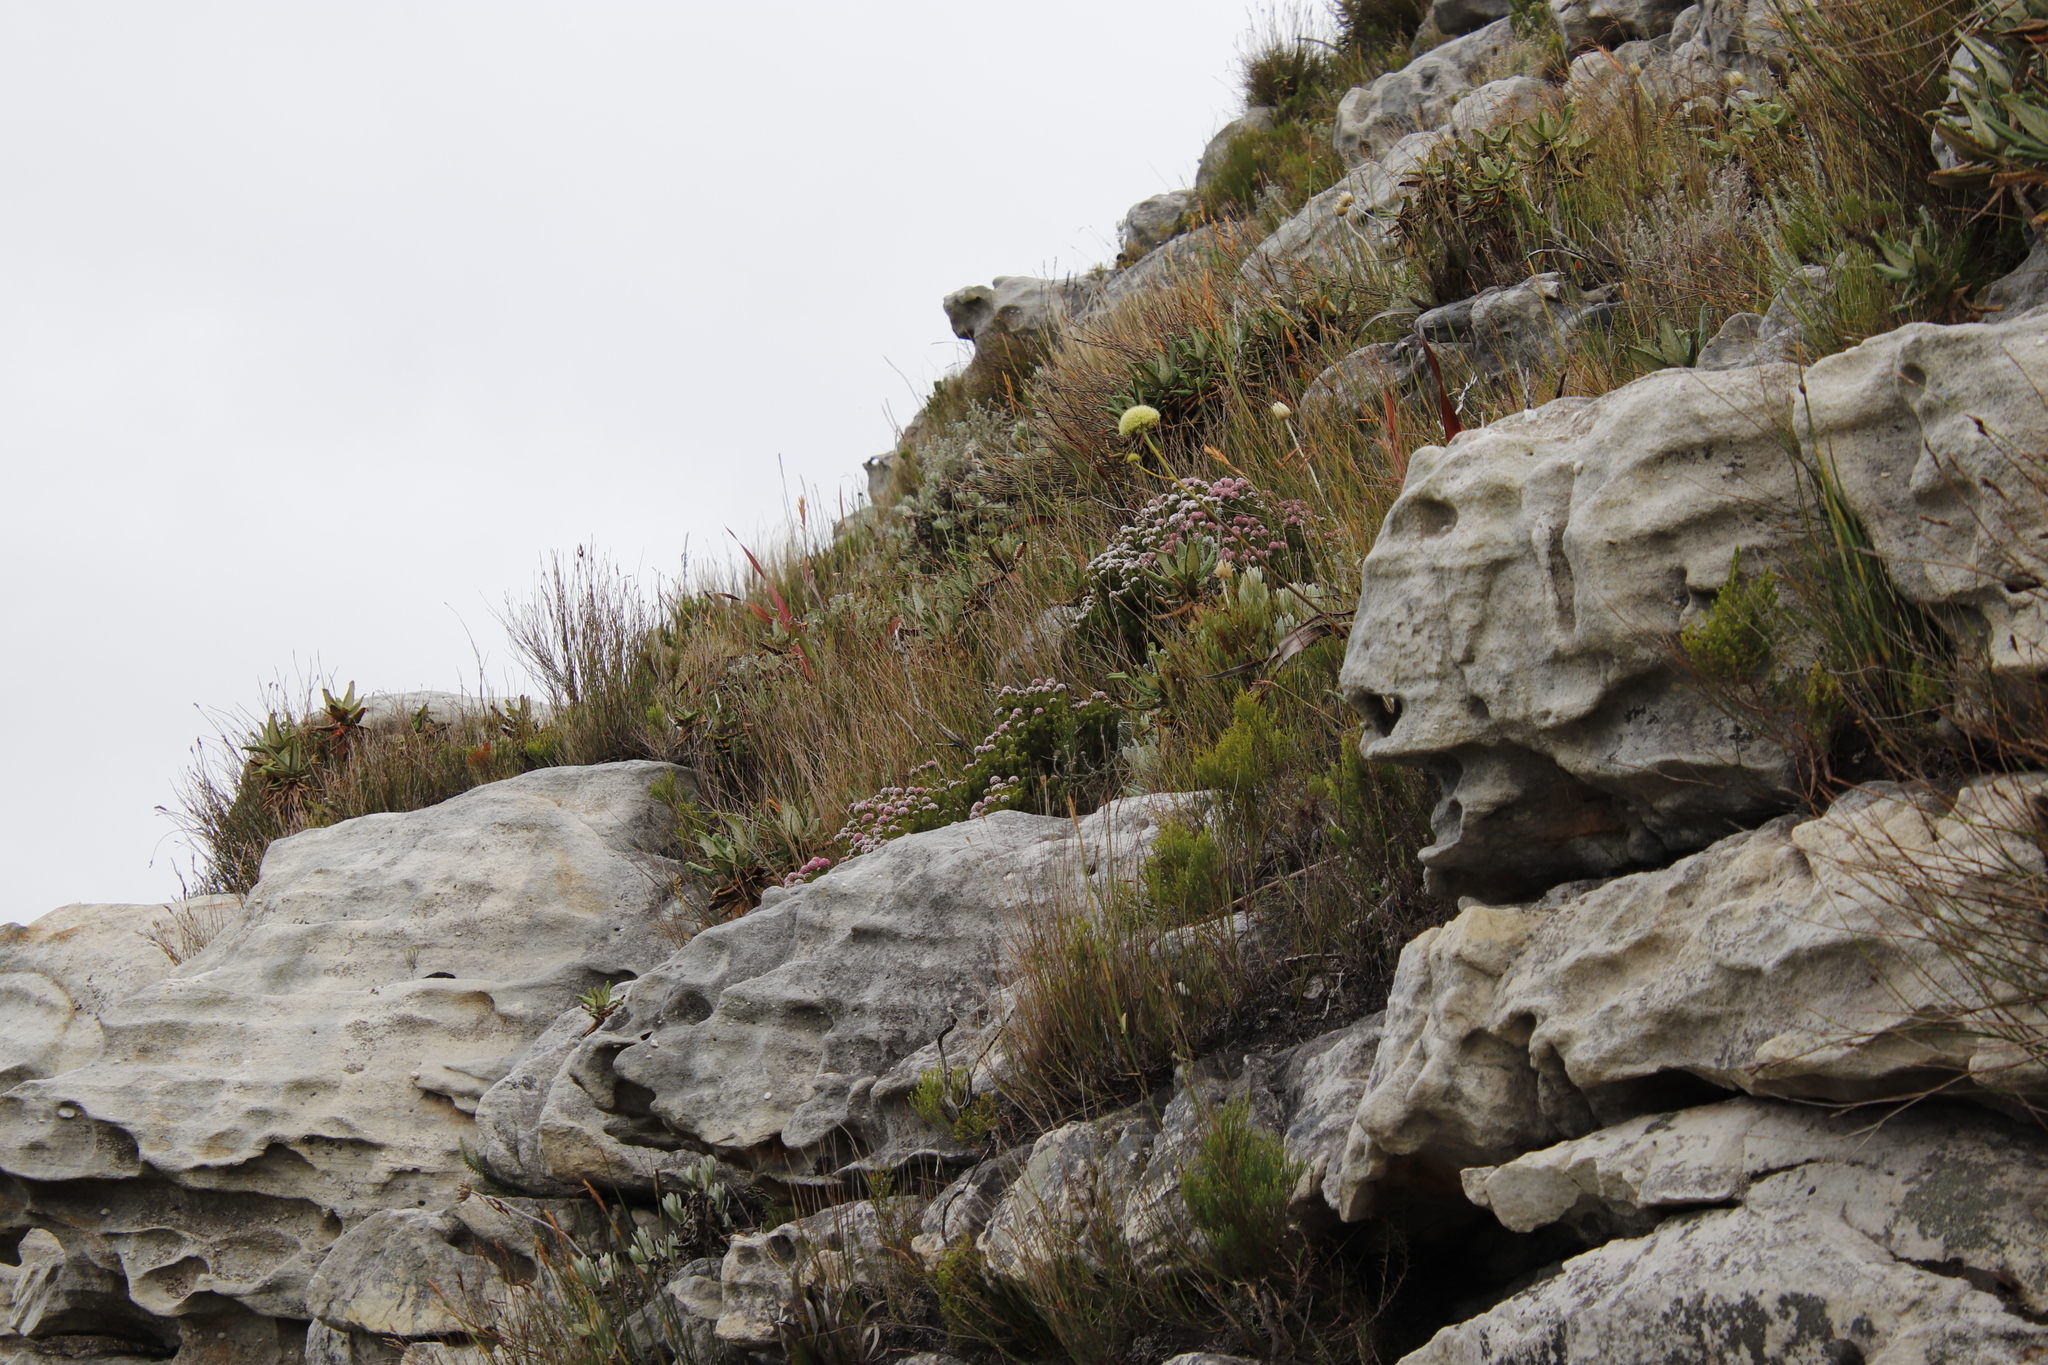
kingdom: Plantae
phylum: Tracheophyta
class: Magnoliopsida
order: Asterales
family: Asteraceae
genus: Stoebe
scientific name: Stoebe rosea
